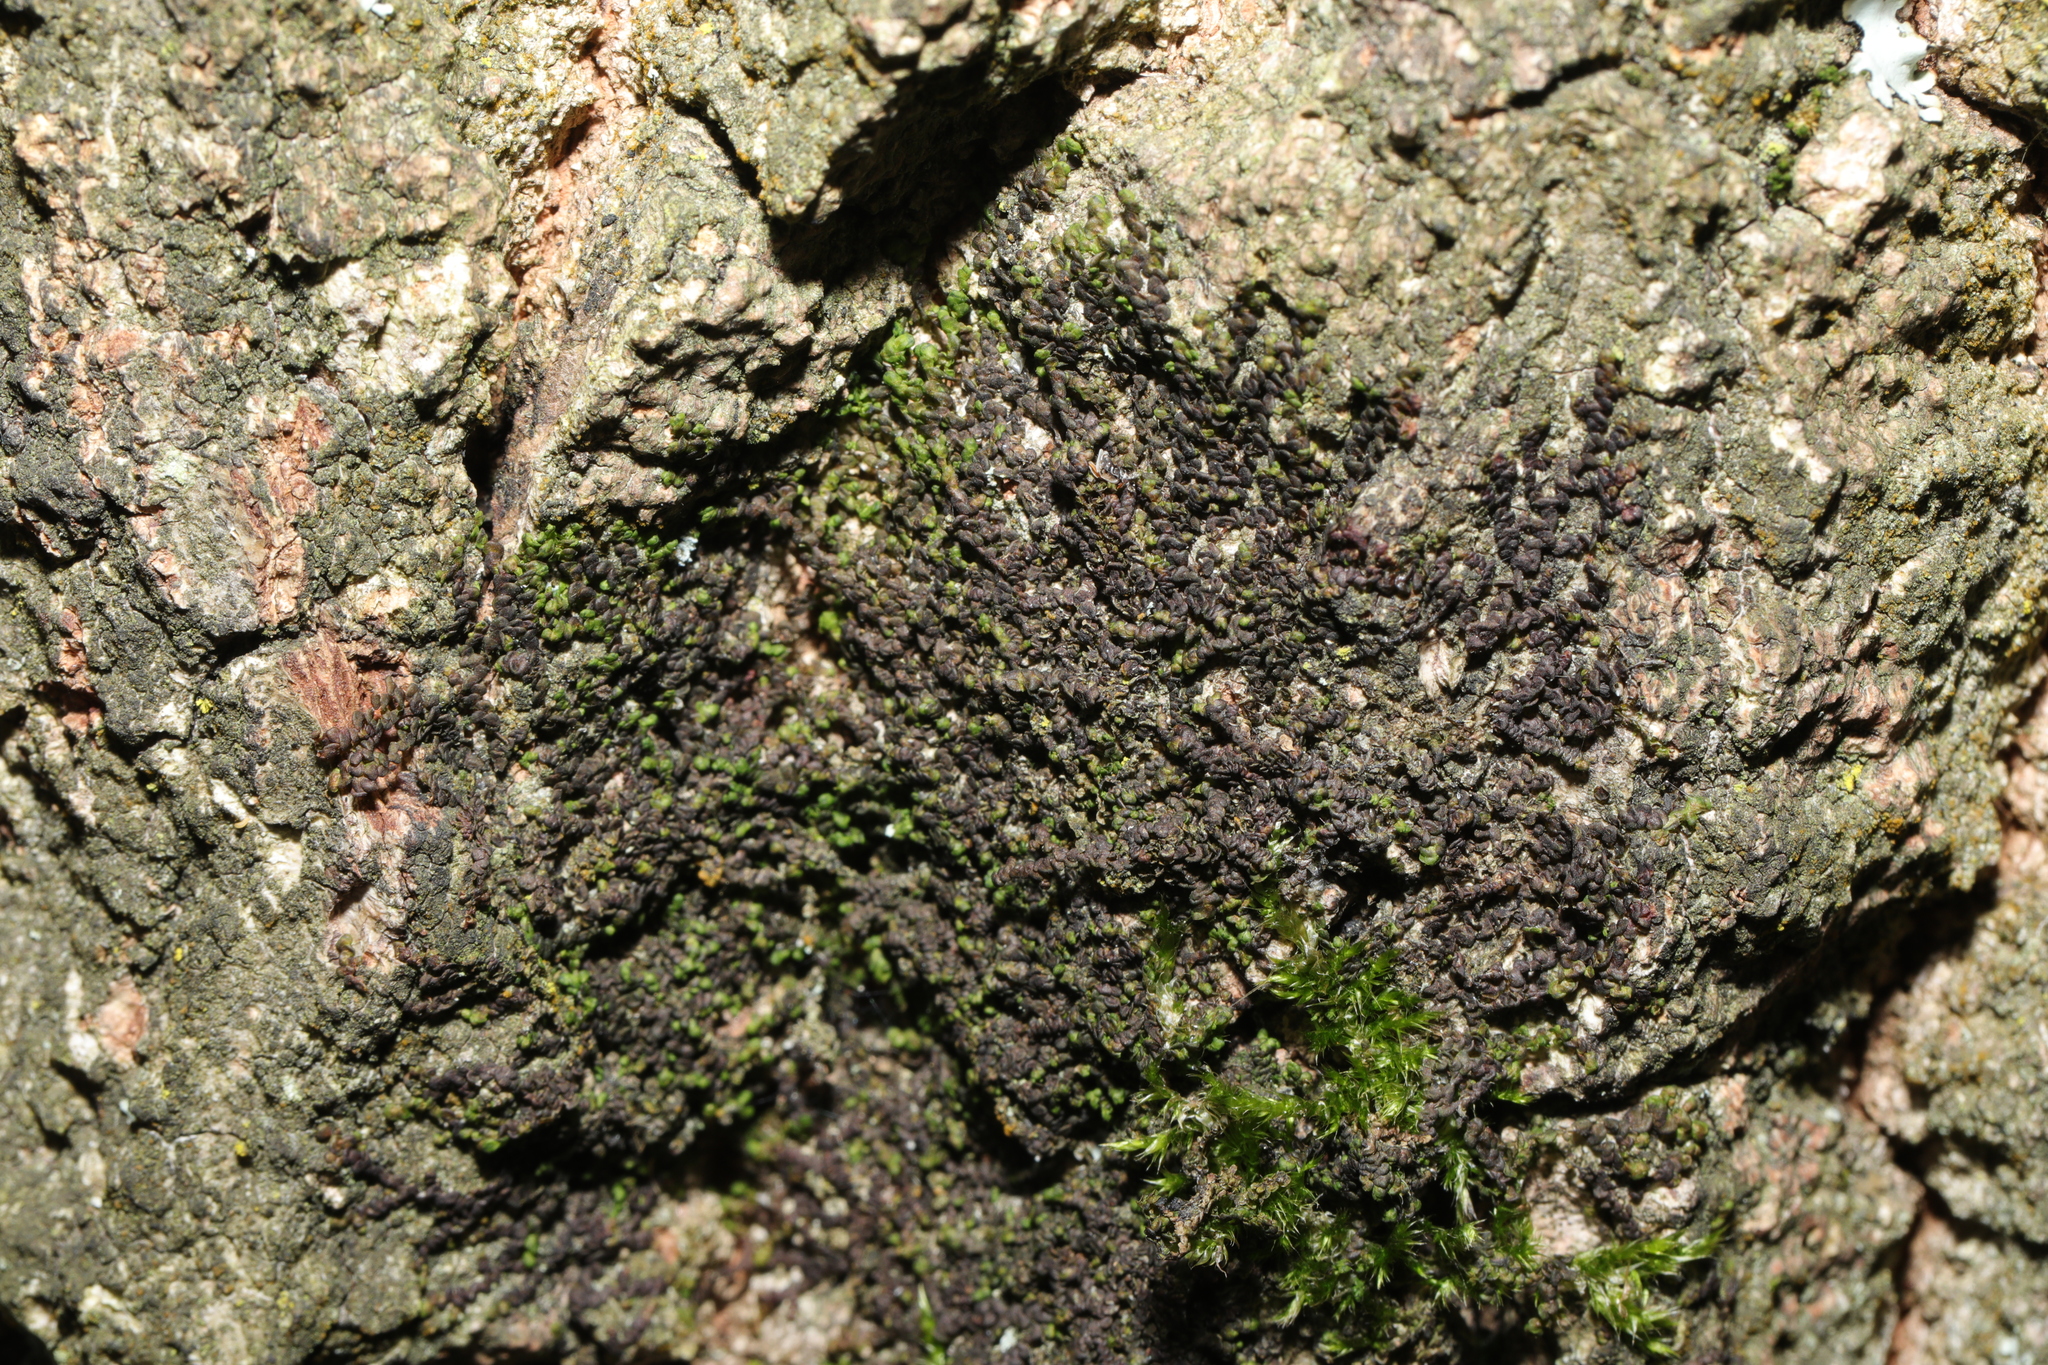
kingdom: Plantae
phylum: Marchantiophyta
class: Jungermanniopsida
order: Porellales
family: Frullaniaceae
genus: Frullania
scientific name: Frullania dilatata
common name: Dilated scalewort
